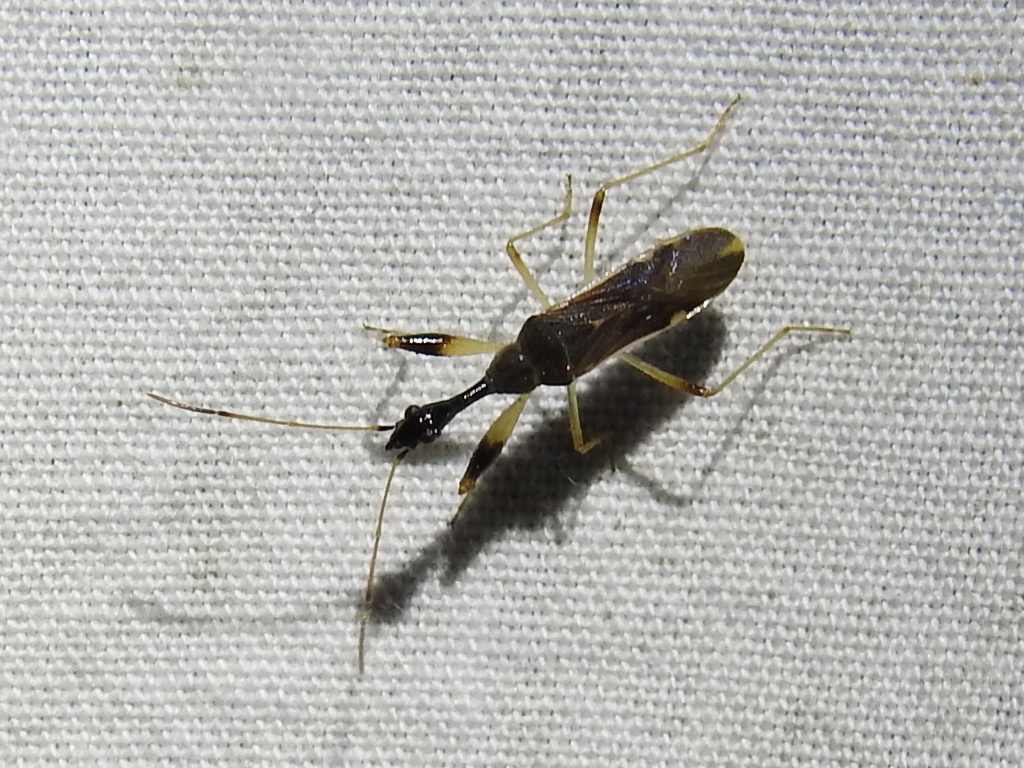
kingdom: Animalia
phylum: Arthropoda
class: Insecta
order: Hemiptera
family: Rhyparochromidae
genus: Myodocha
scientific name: Myodocha serripes
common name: Long-necked seed bug
